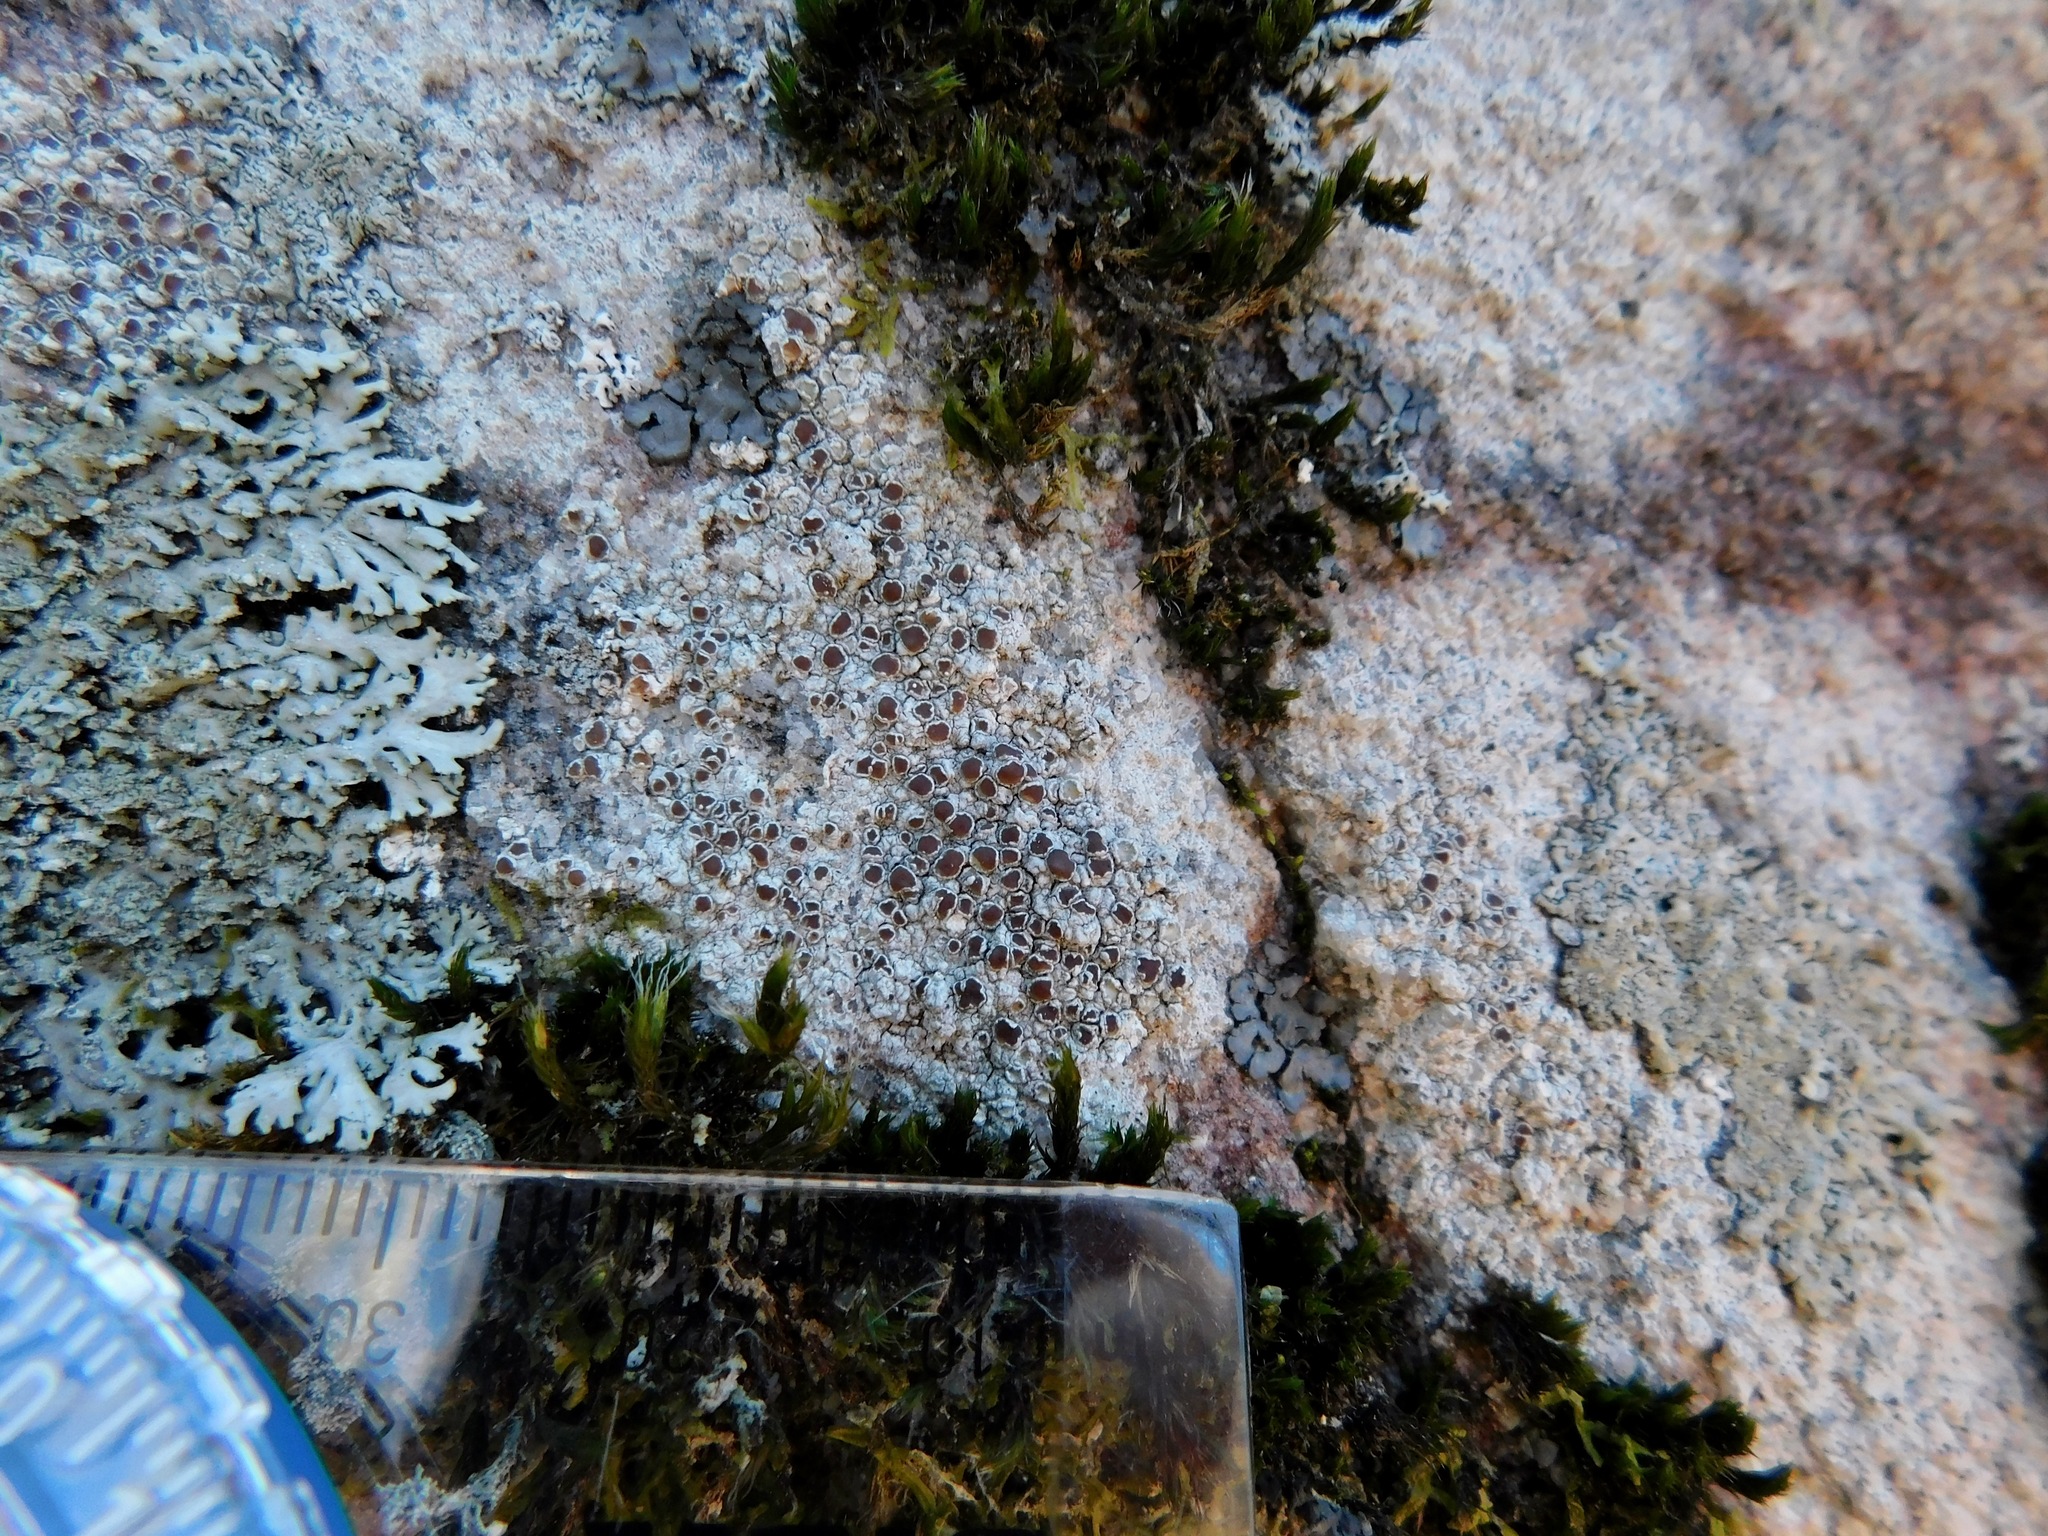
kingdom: Fungi
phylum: Ascomycota
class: Lecanoromycetes
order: Lecanorales
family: Lecanoraceae
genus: Lecanora
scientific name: Lecanora saxigena
